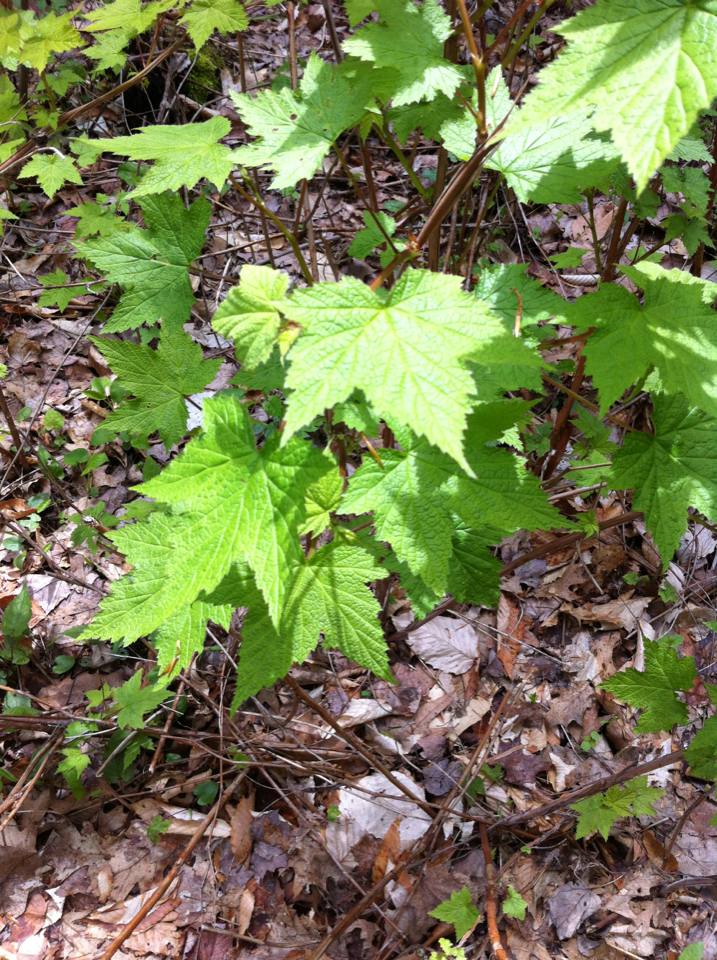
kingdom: Plantae
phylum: Tracheophyta
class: Magnoliopsida
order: Rosales
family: Rosaceae
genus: Rubus
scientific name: Rubus odoratus
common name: Purple-flowered raspberry
